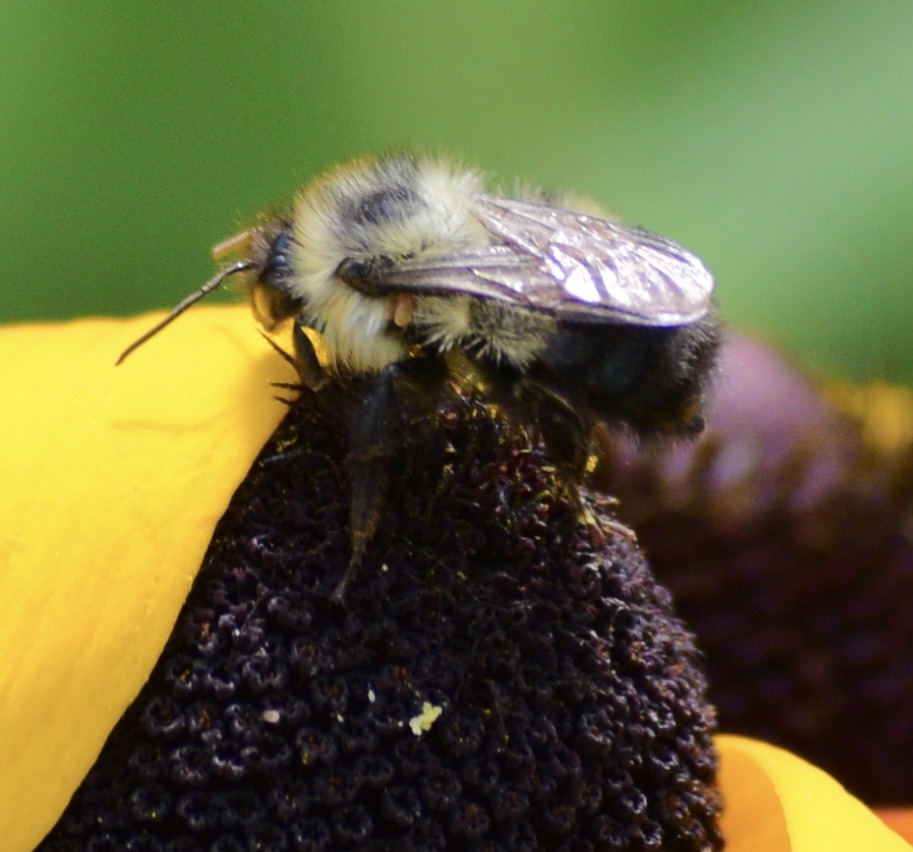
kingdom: Animalia
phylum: Arthropoda
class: Insecta
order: Hymenoptera
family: Apidae
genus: Pyrobombus
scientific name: Pyrobombus
